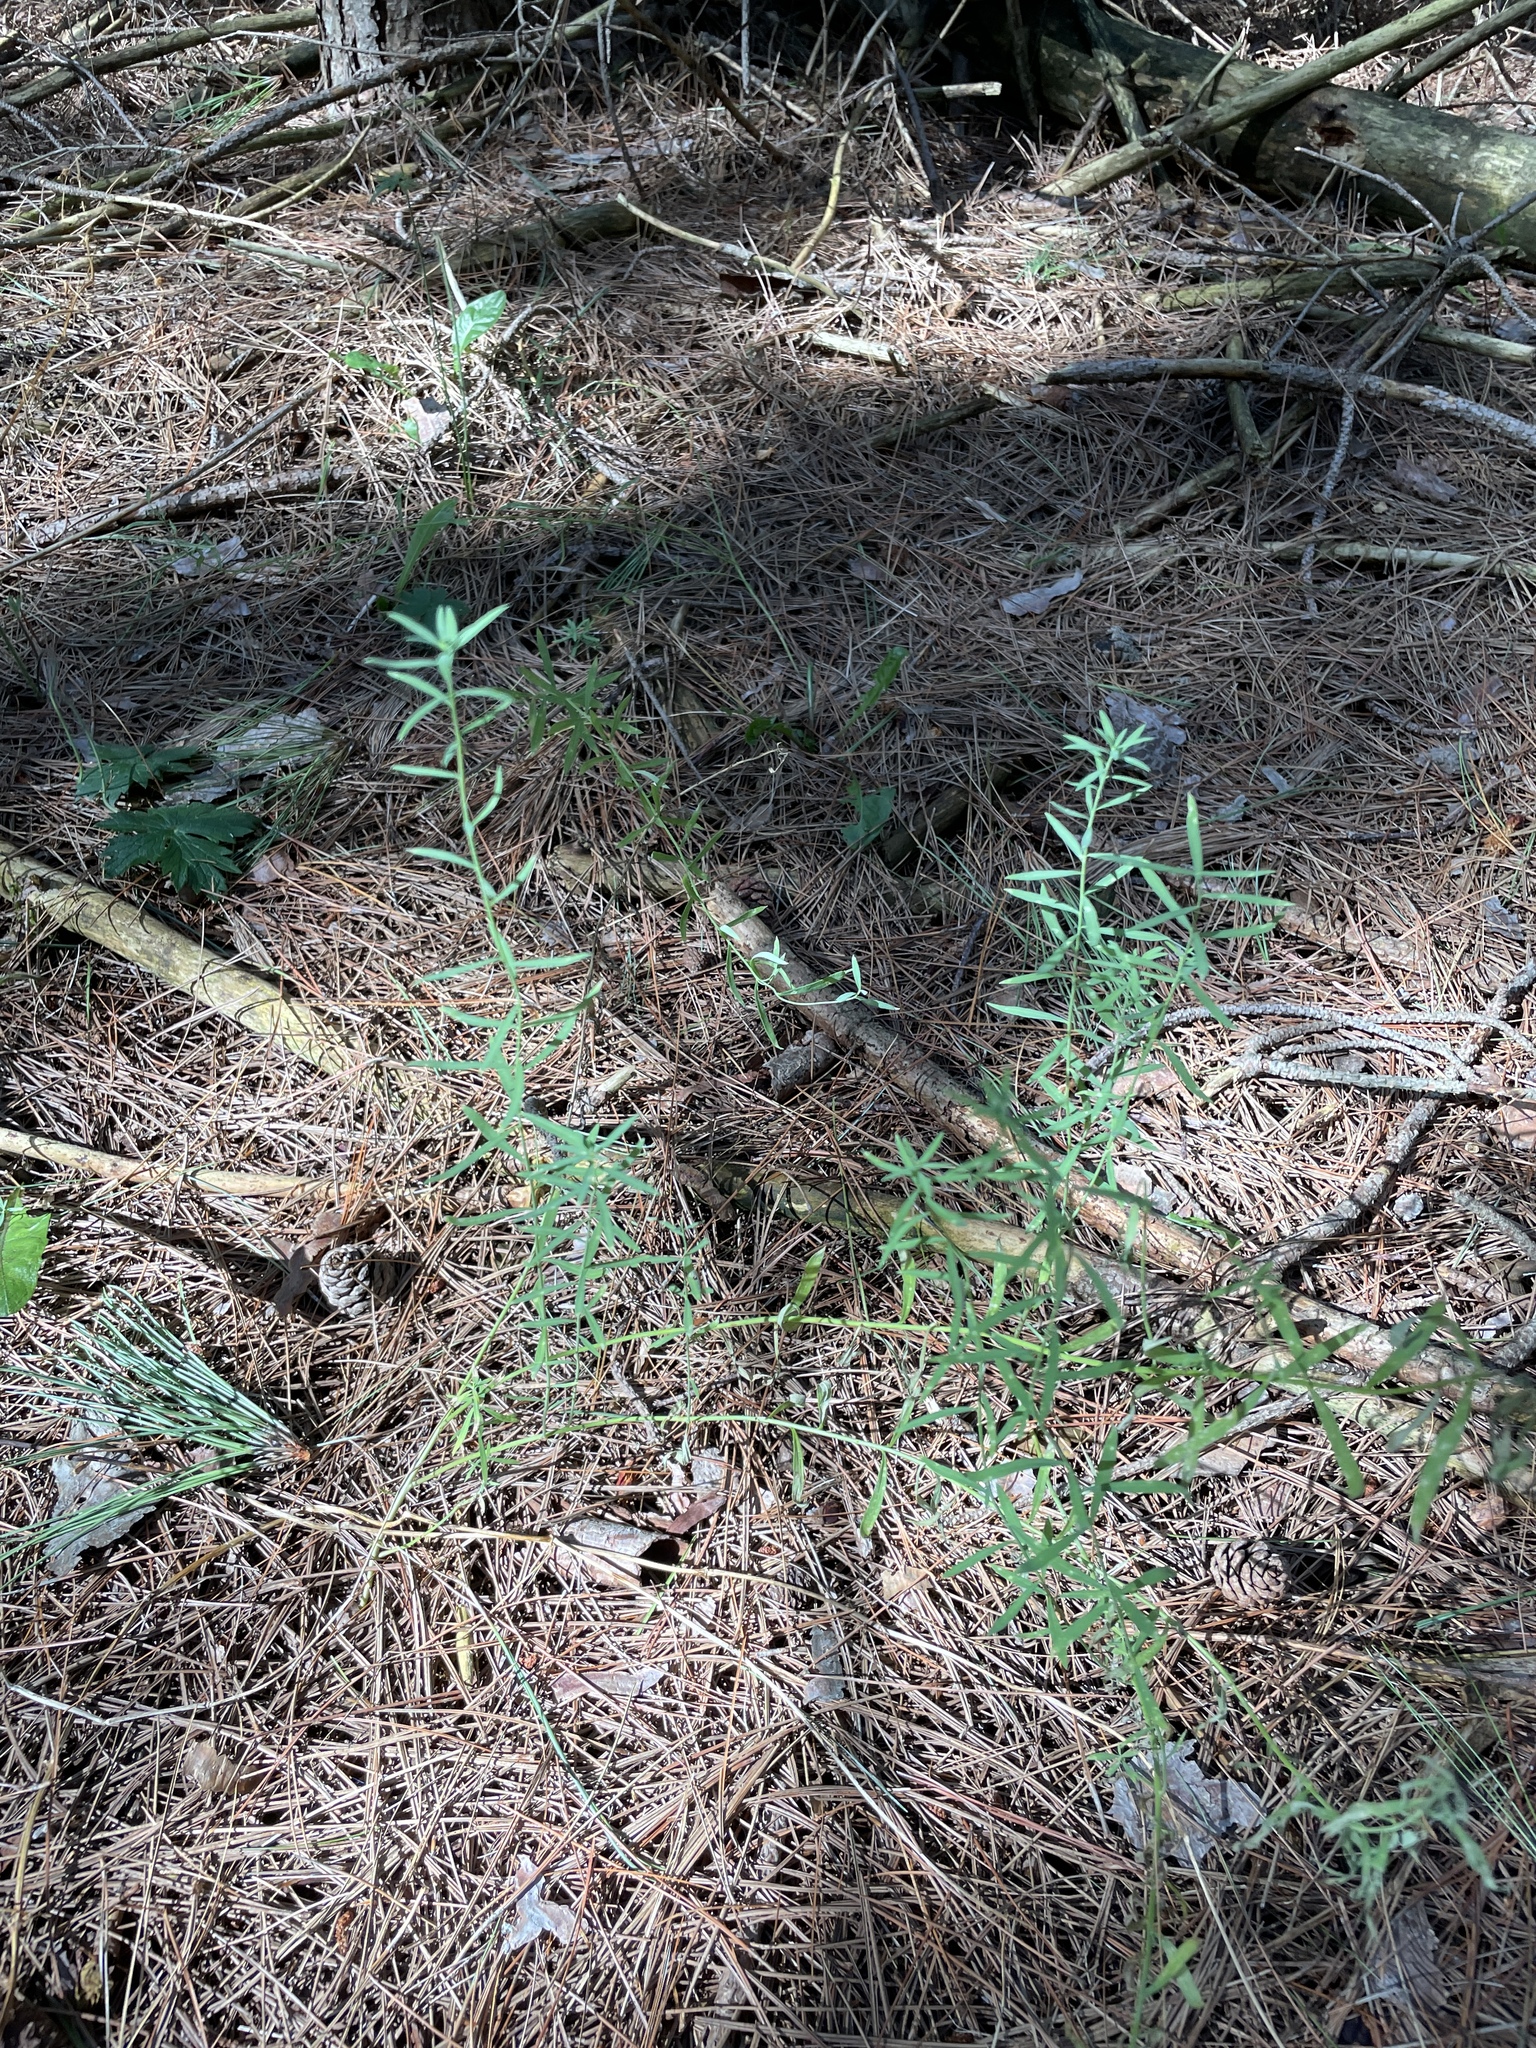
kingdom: Plantae
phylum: Tracheophyta
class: Magnoliopsida
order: Lamiales
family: Plantaginaceae
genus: Linaria
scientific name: Linaria vulgaris
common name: Butter and eggs
